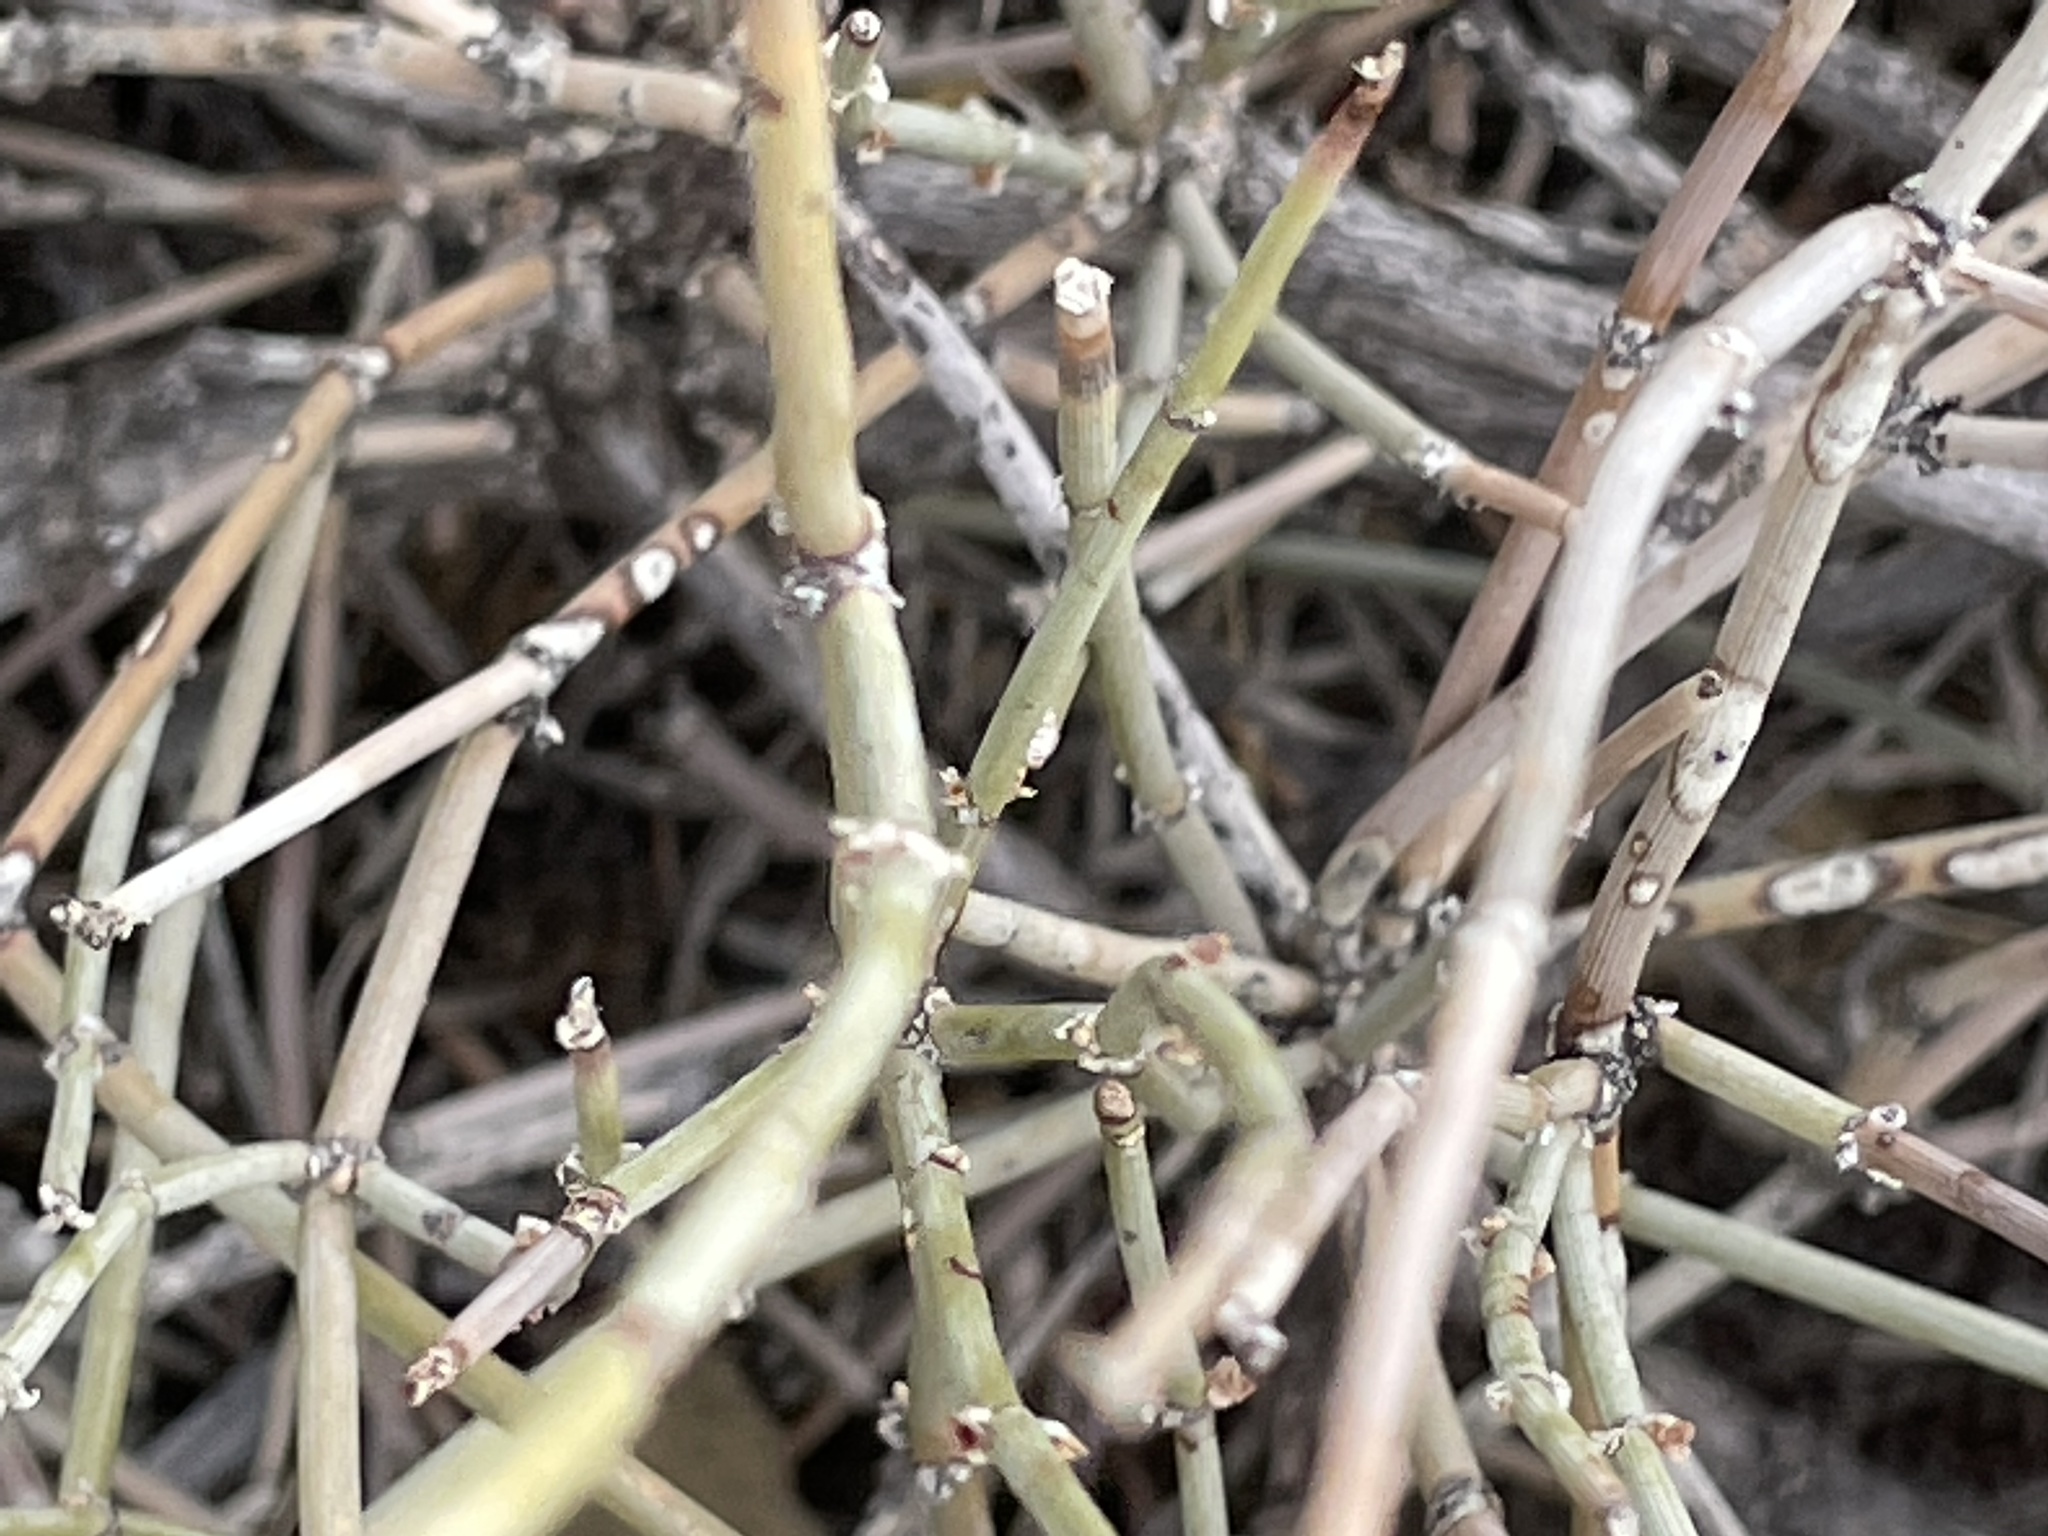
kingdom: Plantae
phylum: Tracheophyta
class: Gnetopsida
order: Ephedrales
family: Ephedraceae
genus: Ephedra
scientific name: Ephedra torreyana
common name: Torrey ephedra
